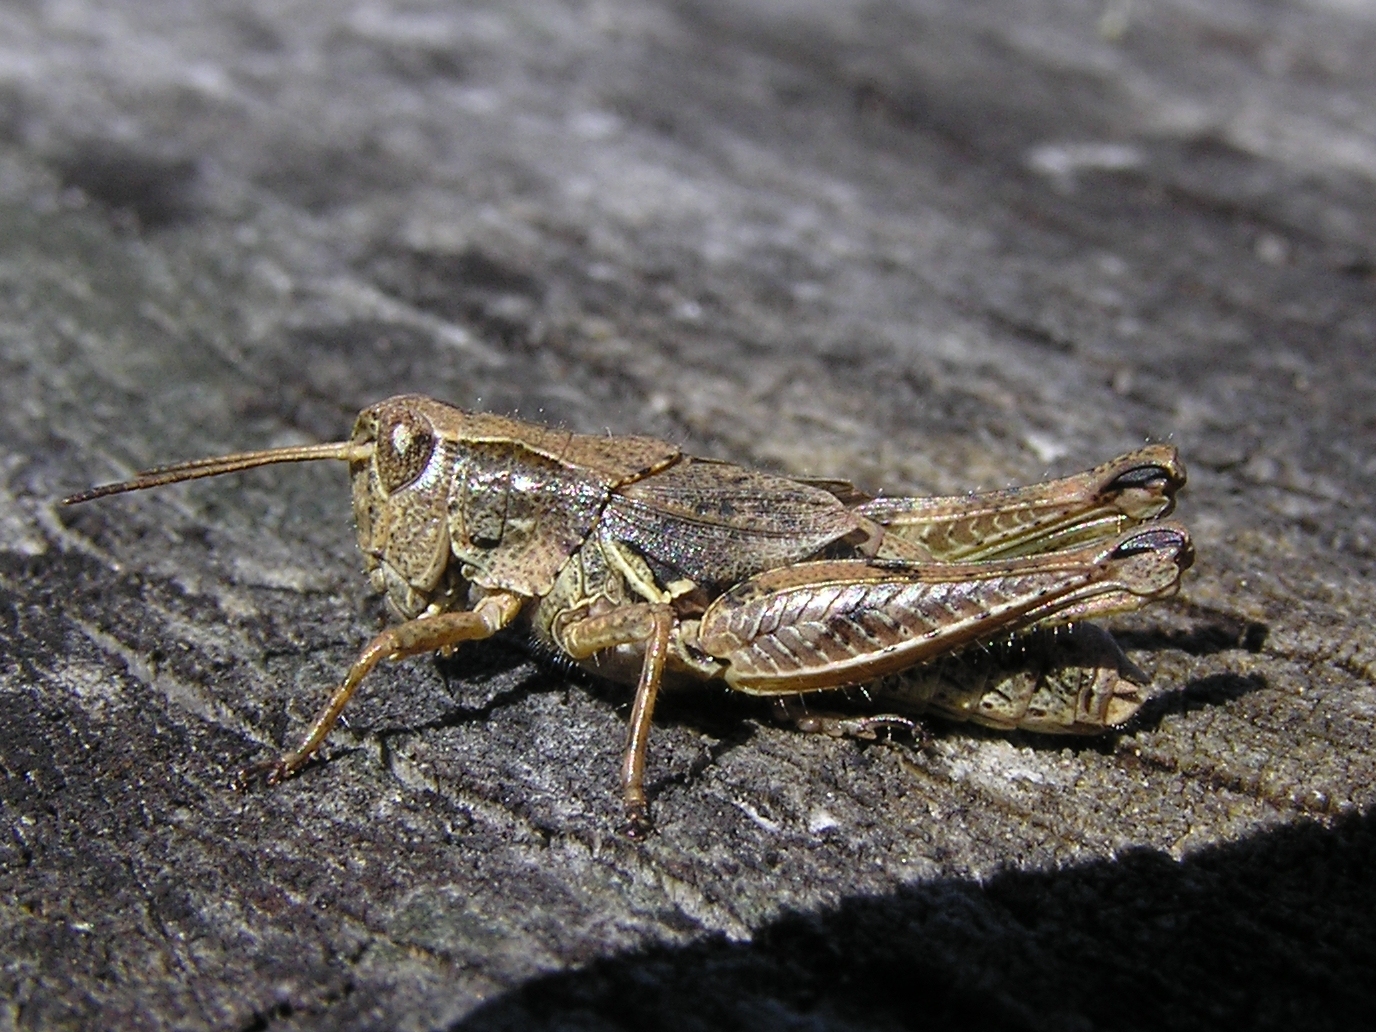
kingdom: Animalia
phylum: Arthropoda
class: Insecta
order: Orthoptera
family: Acrididae
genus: Phaulacridium
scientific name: Phaulacridium marginale
